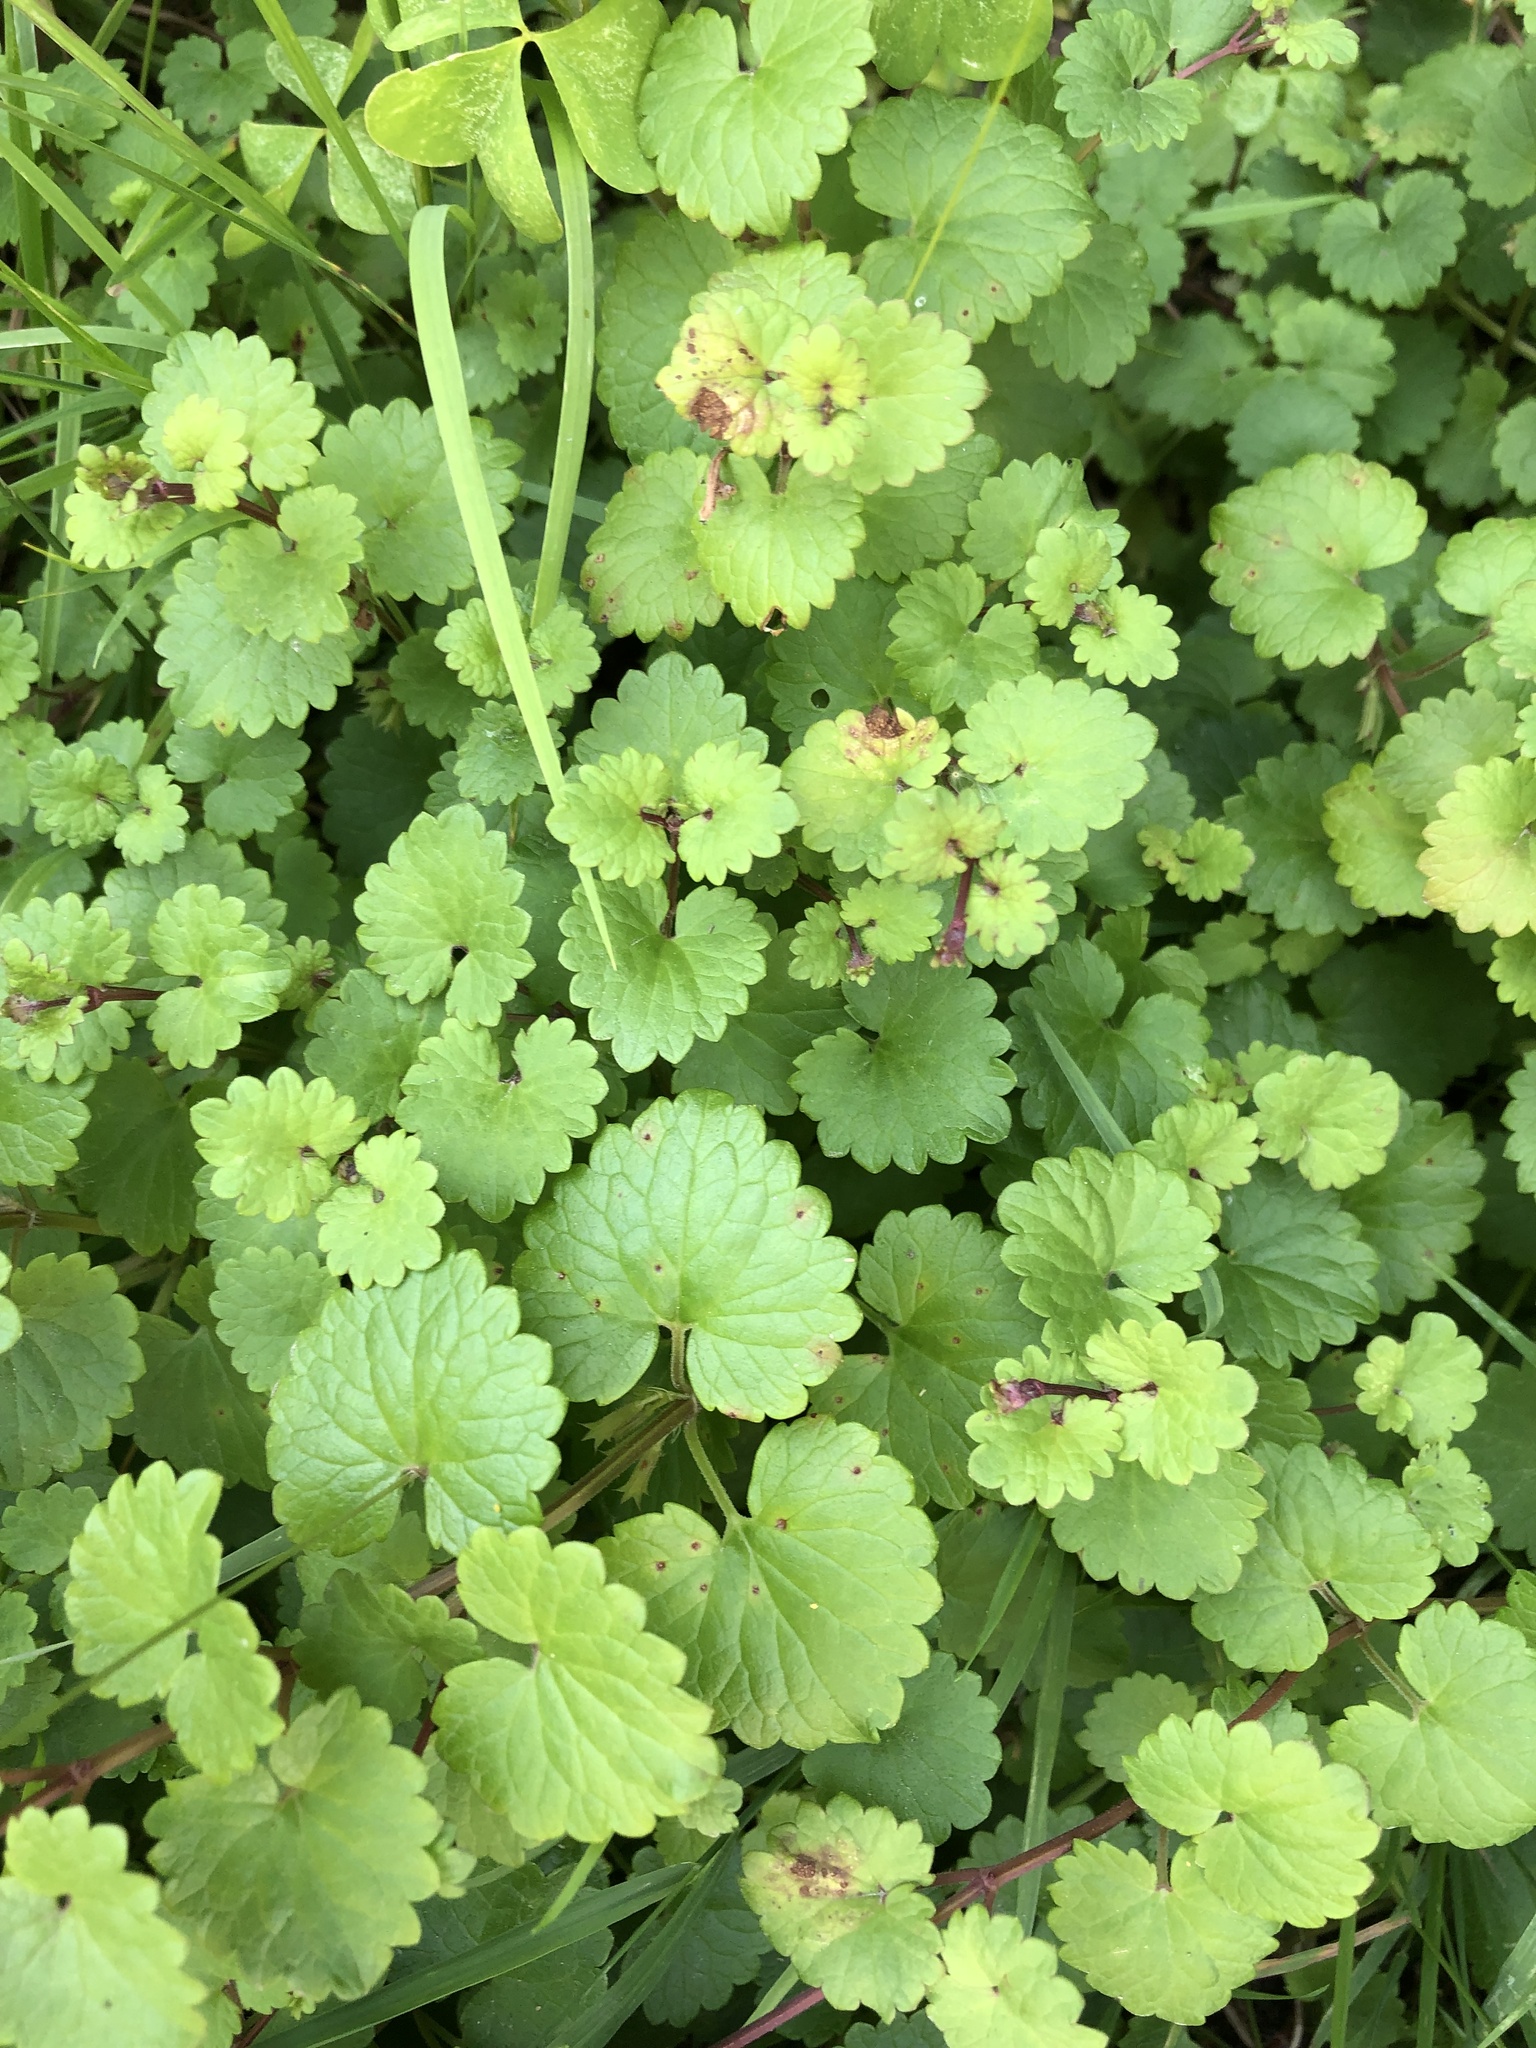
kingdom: Plantae
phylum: Tracheophyta
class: Magnoliopsida
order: Lamiales
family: Lamiaceae
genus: Glechoma
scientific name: Glechoma hederacea
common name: Ground ivy
